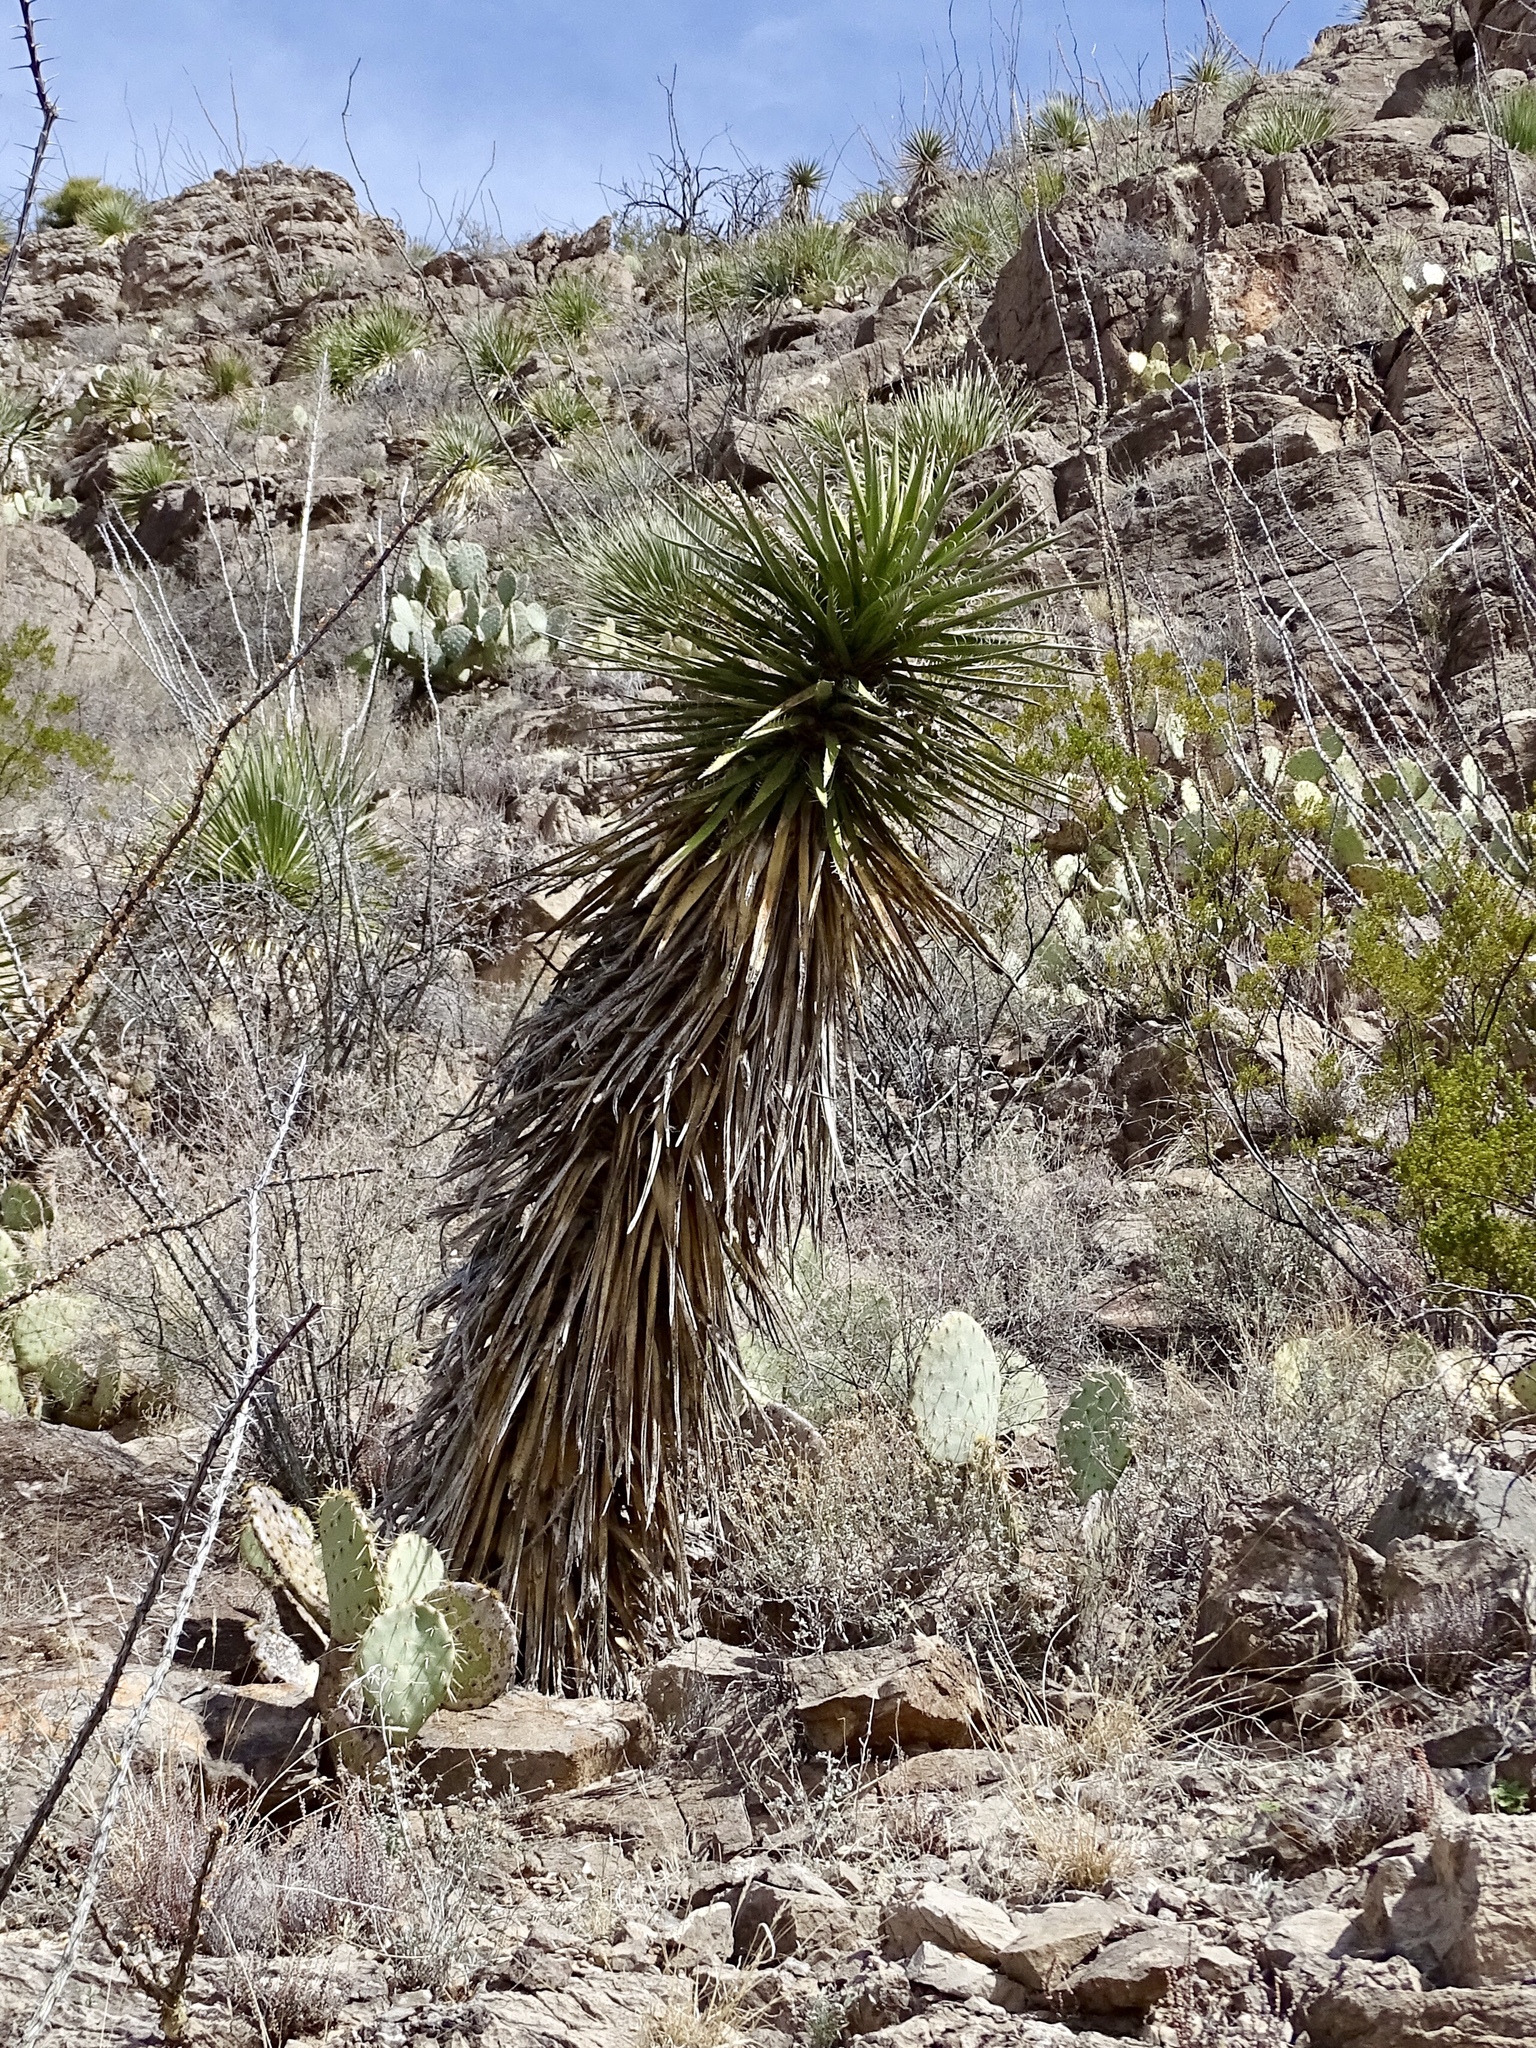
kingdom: Plantae
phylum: Tracheophyta
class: Liliopsida
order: Asparagales
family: Asparagaceae
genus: Yucca
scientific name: Yucca treculiana
